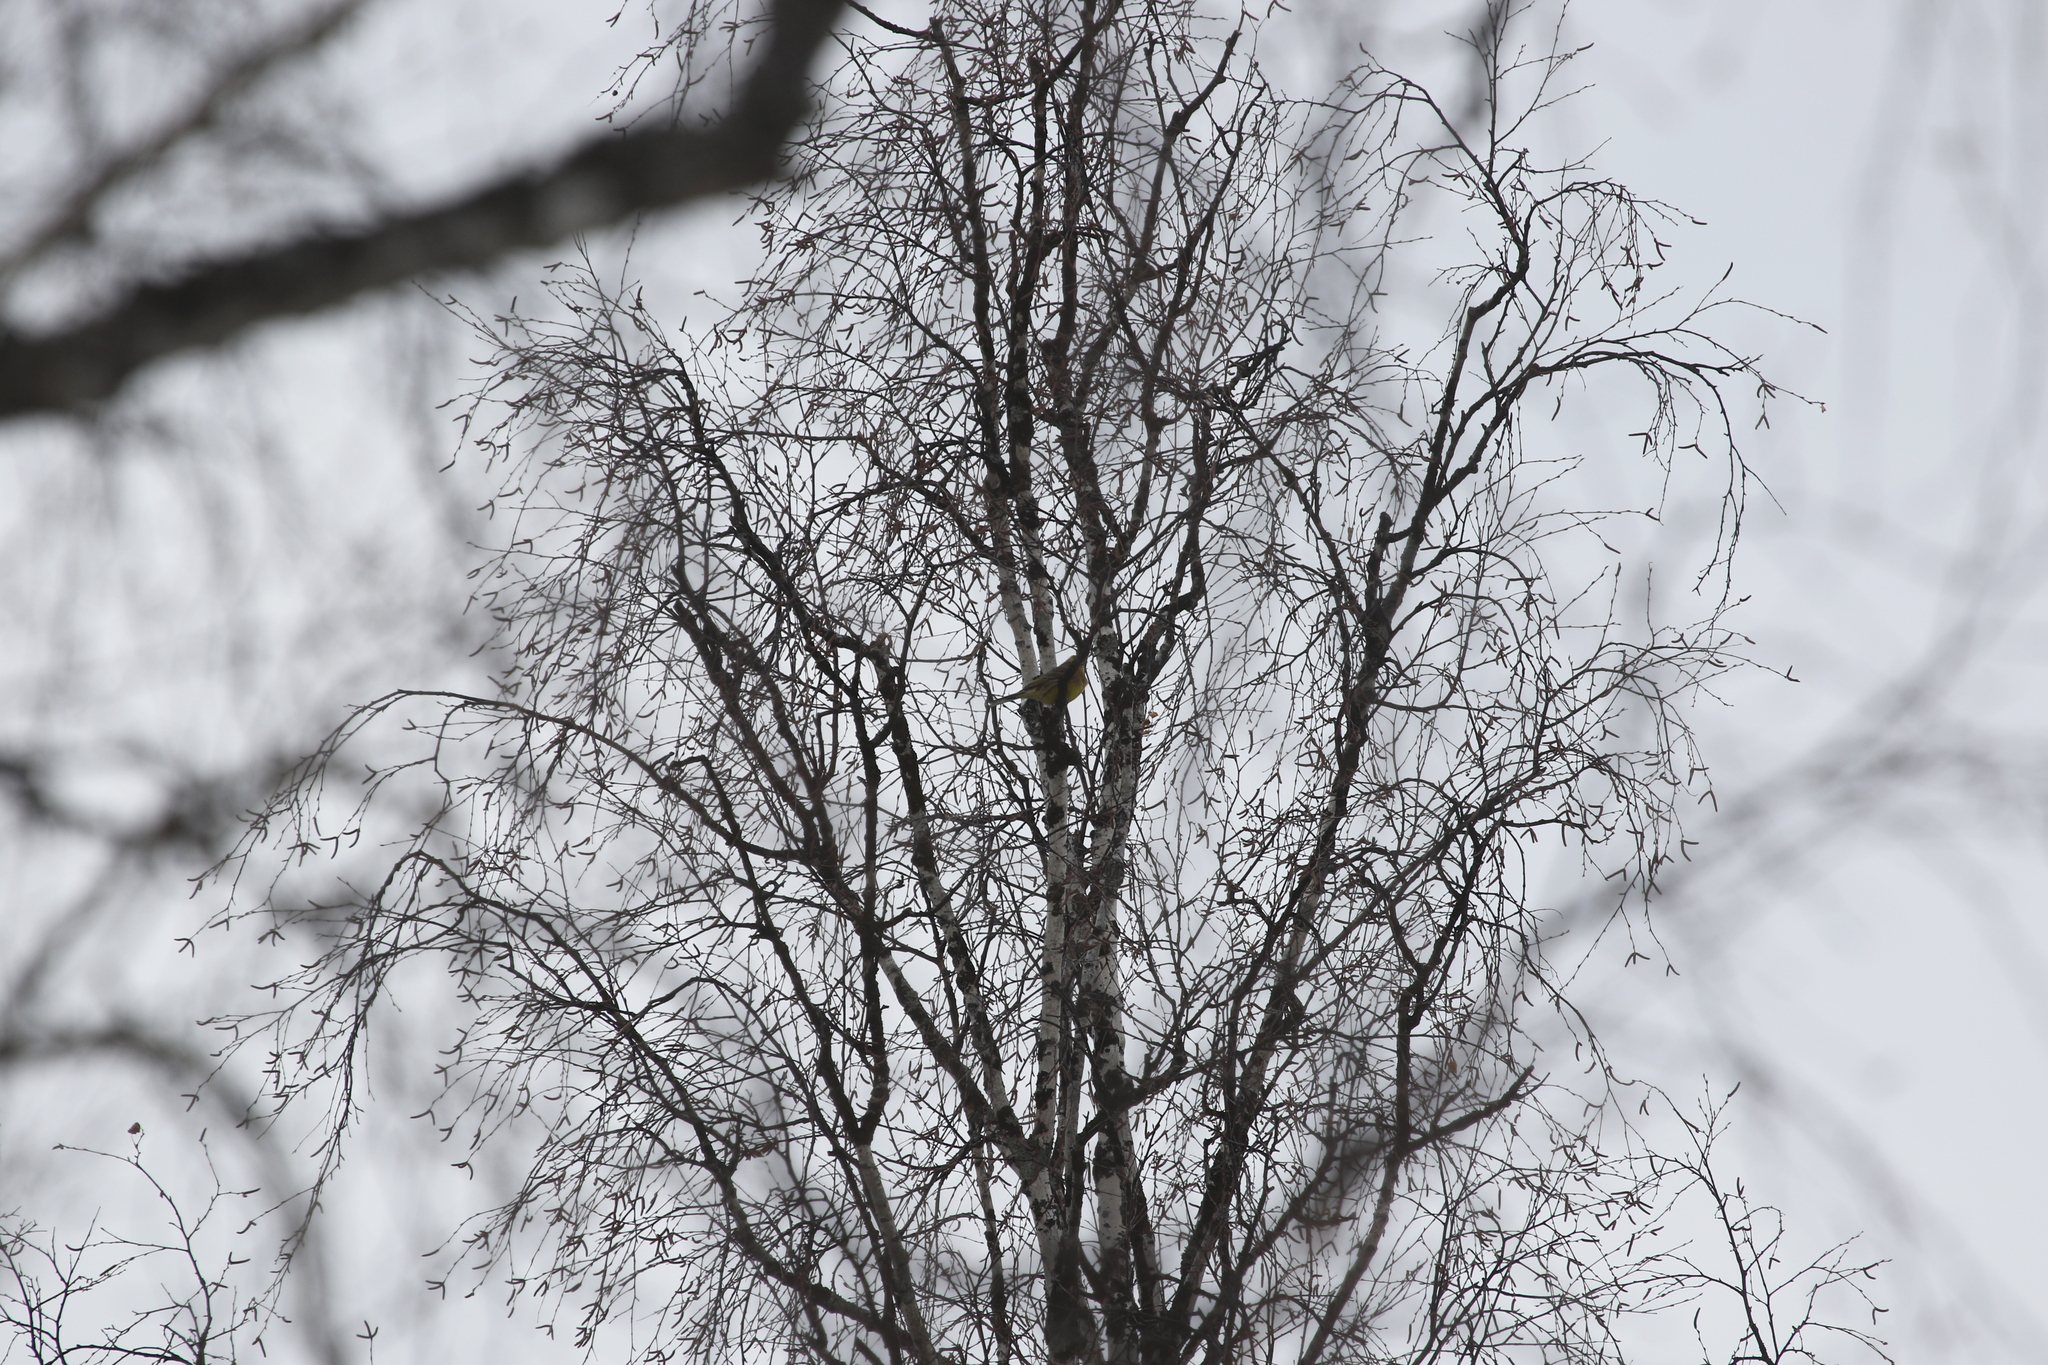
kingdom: Animalia
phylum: Chordata
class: Aves
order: Passeriformes
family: Emberizidae
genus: Emberiza
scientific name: Emberiza citrinella
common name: Yellowhammer
